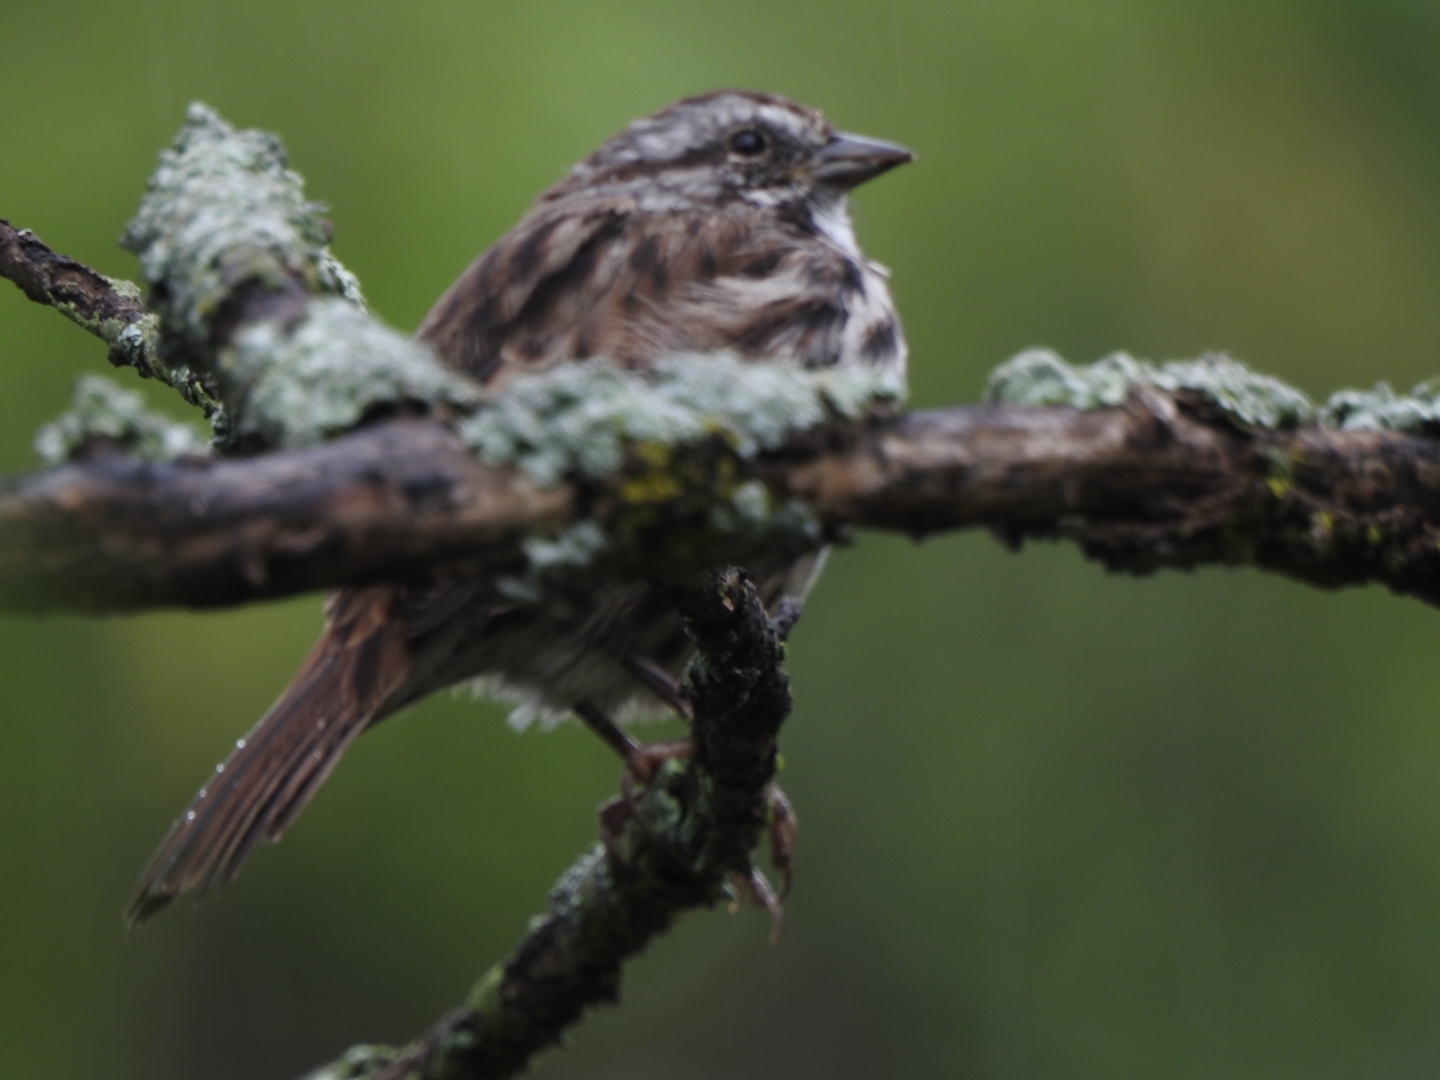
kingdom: Animalia
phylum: Chordata
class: Aves
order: Passeriformes
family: Passerellidae
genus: Melospiza
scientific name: Melospiza melodia
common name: Song sparrow
